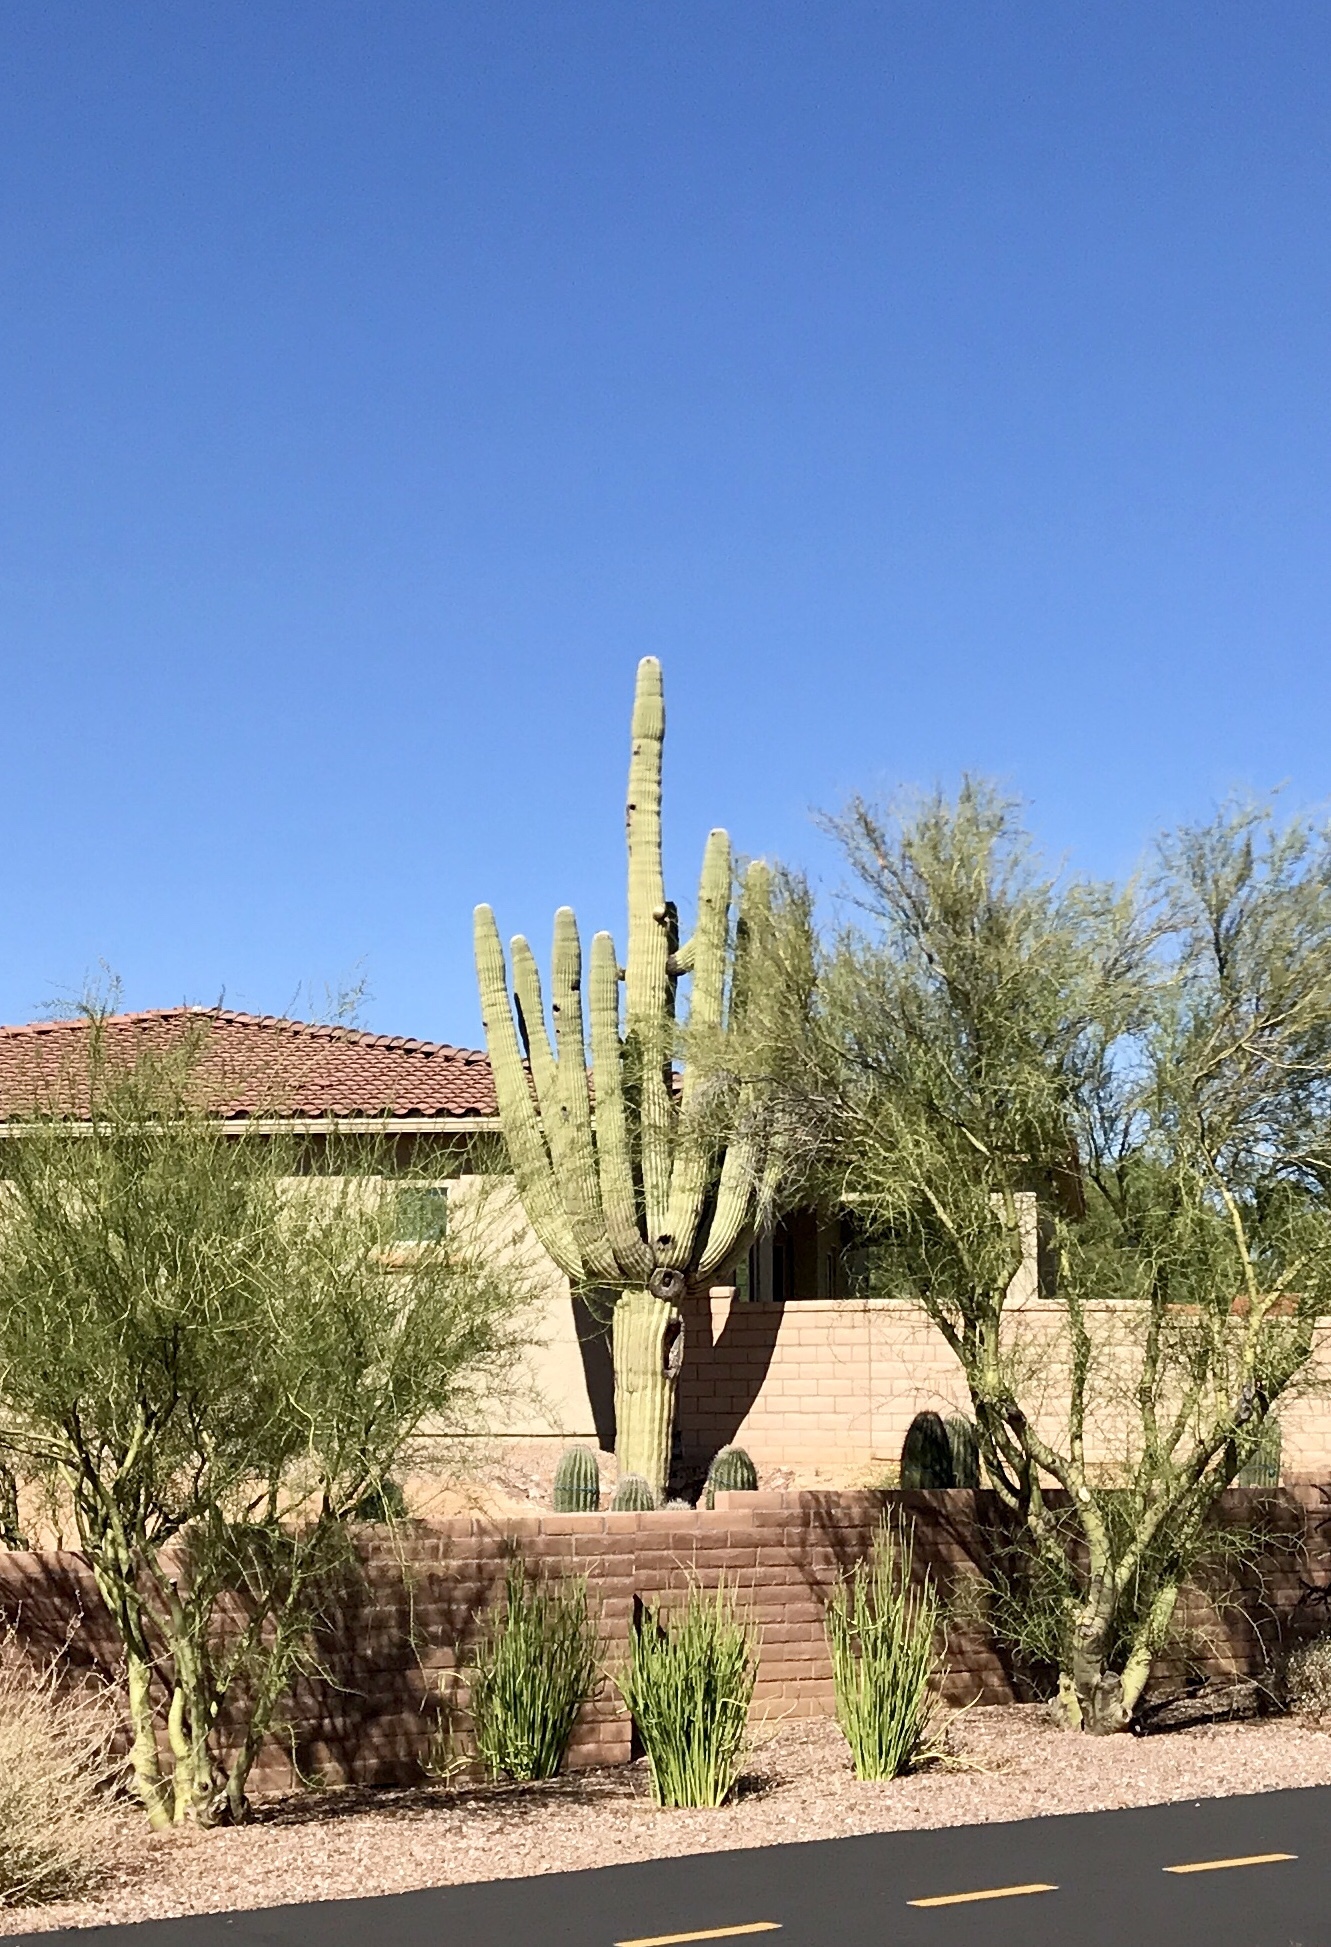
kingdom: Plantae
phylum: Tracheophyta
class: Magnoliopsida
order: Caryophyllales
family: Cactaceae
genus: Carnegiea
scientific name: Carnegiea gigantea
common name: Saguaro
